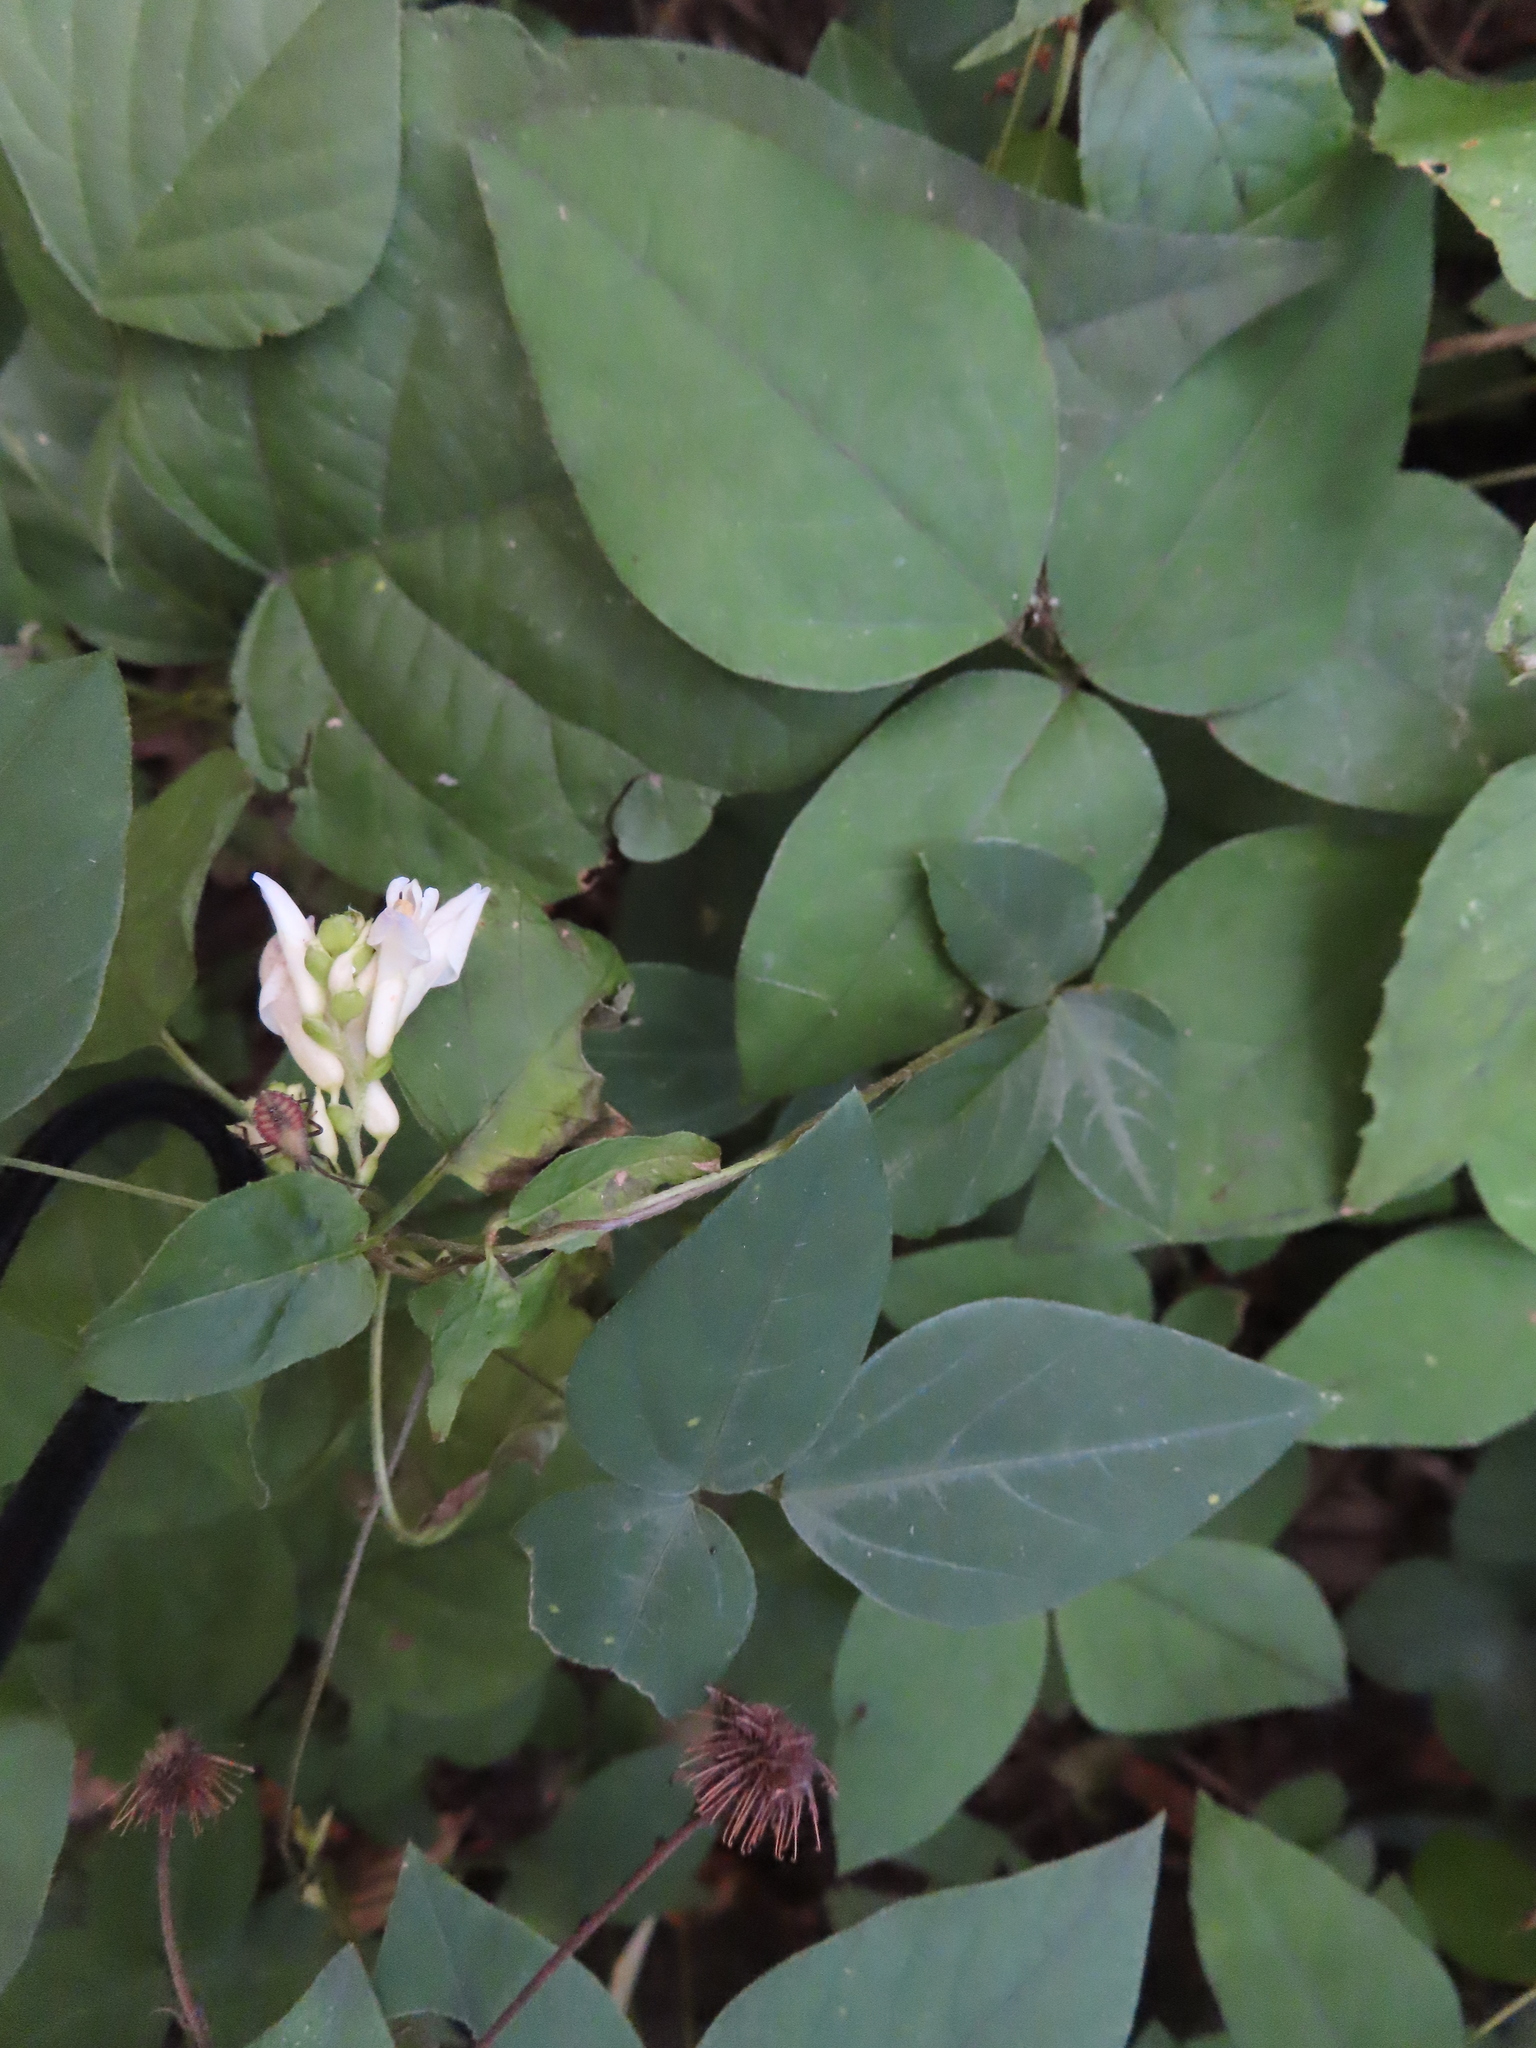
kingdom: Plantae
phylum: Tracheophyta
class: Magnoliopsida
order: Fabales
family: Fabaceae
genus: Amphicarpaea
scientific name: Amphicarpaea bracteata
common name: American hog peanut
